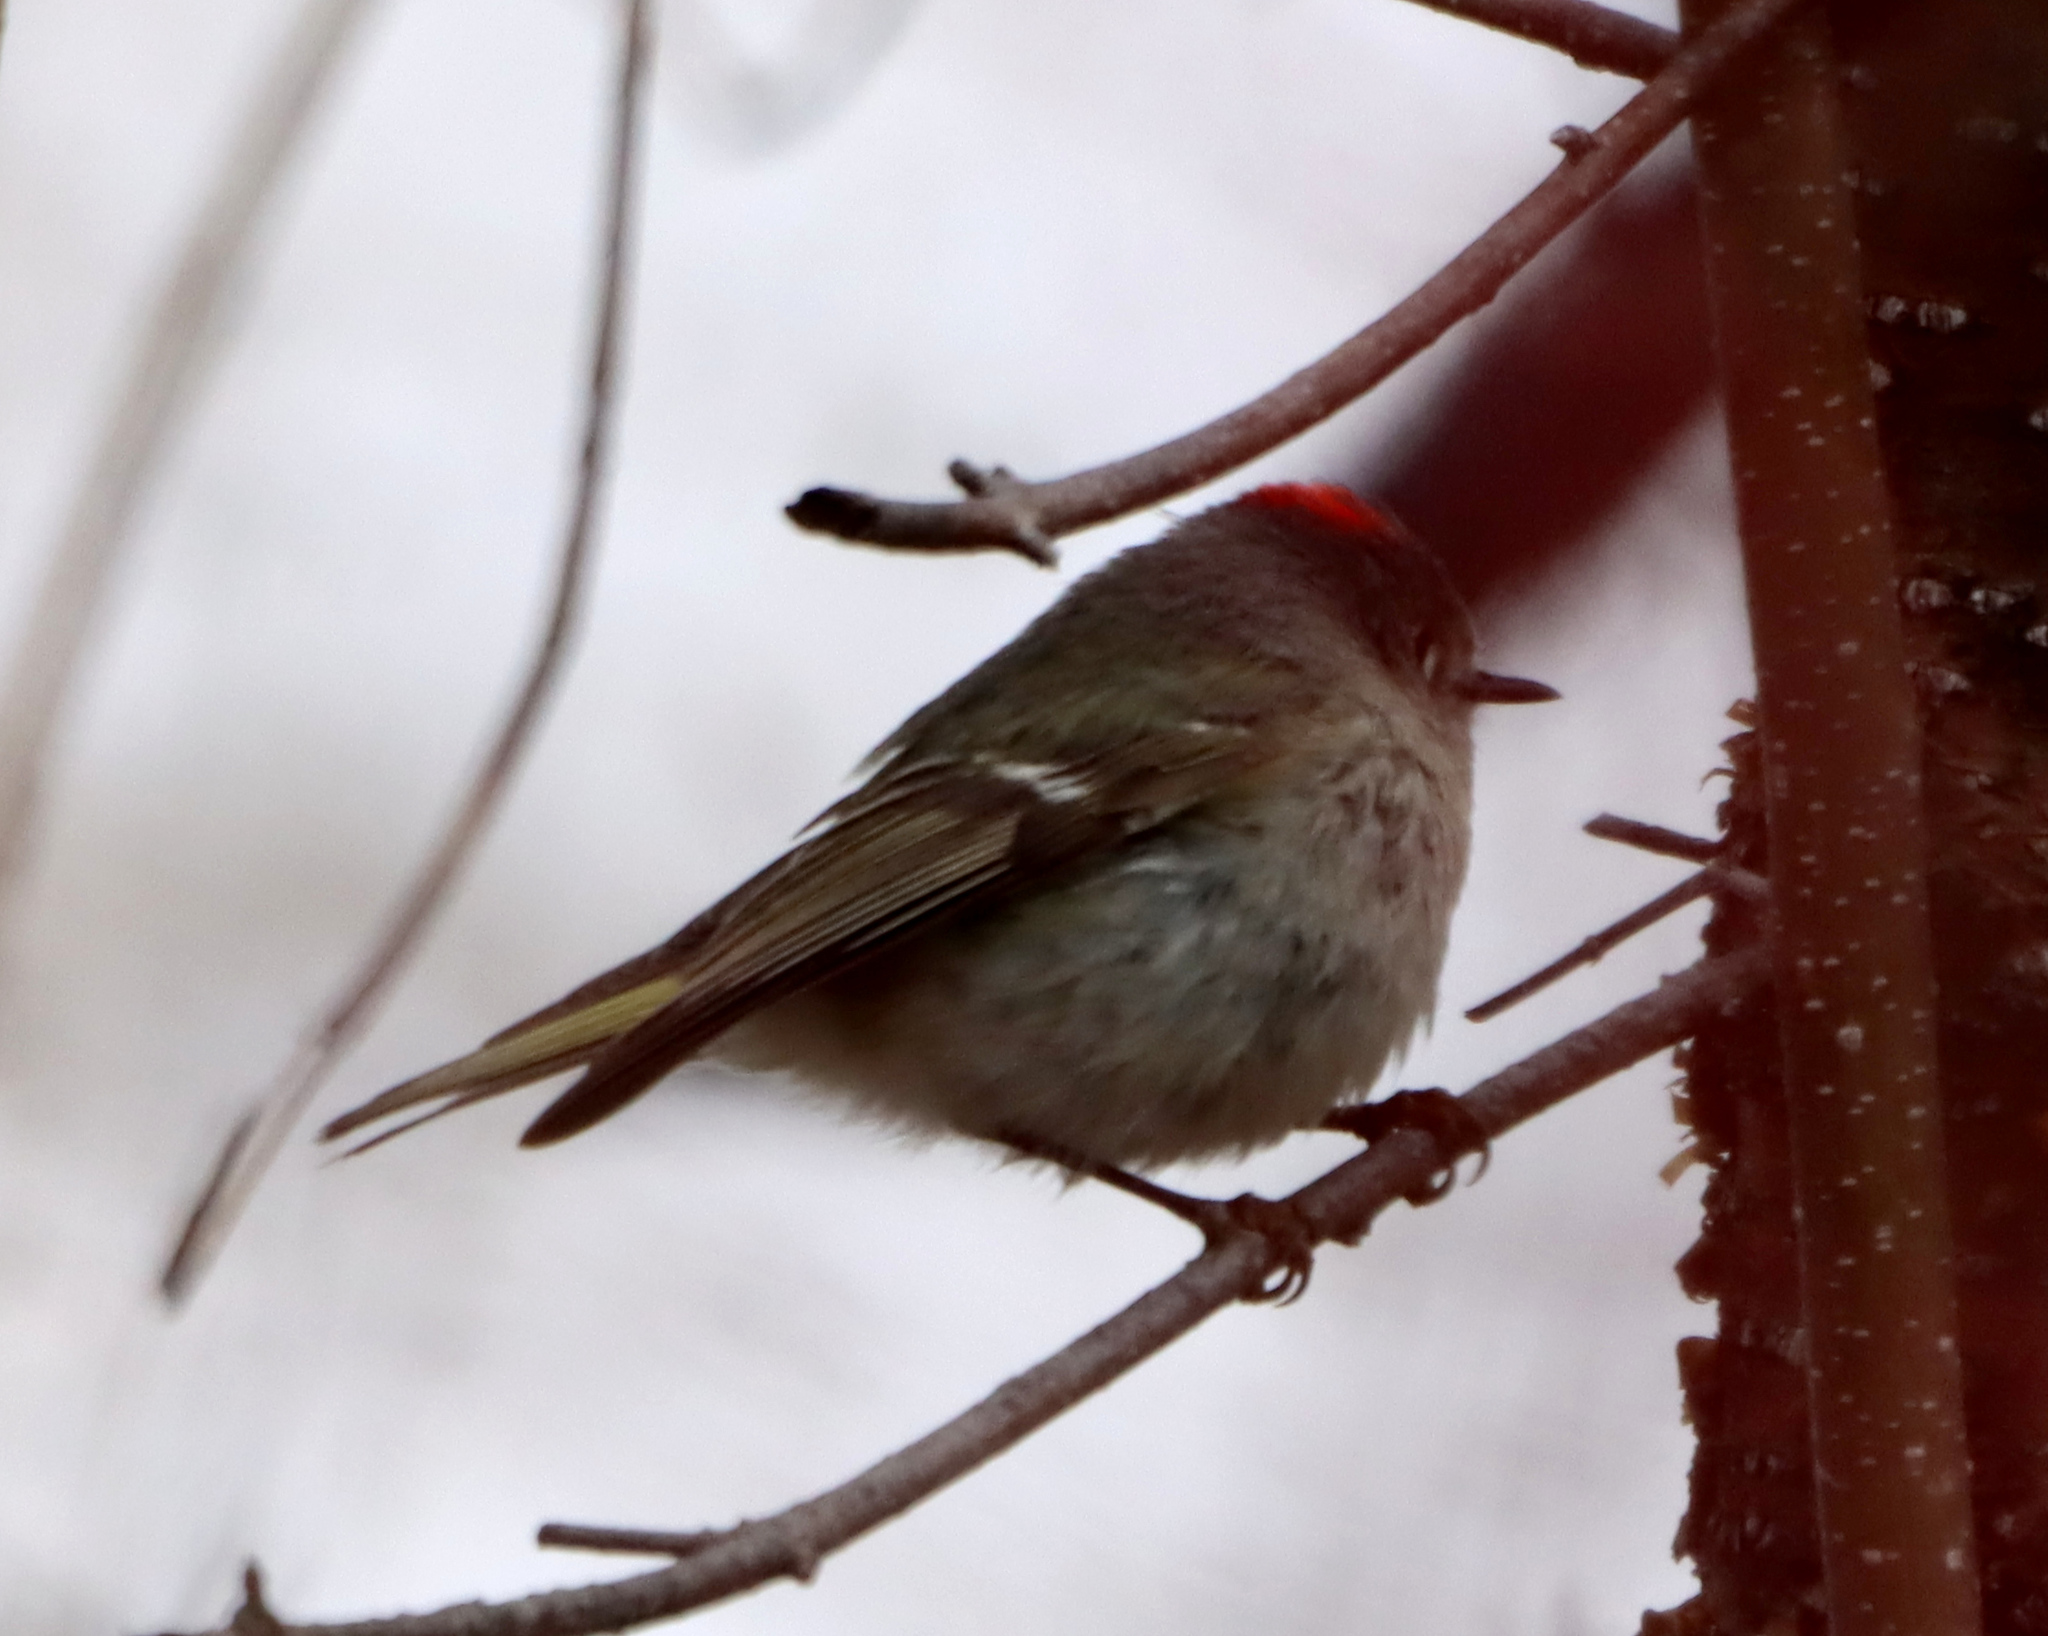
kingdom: Animalia
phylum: Chordata
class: Aves
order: Passeriformes
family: Regulidae
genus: Regulus
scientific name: Regulus calendula
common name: Ruby-crowned kinglet
